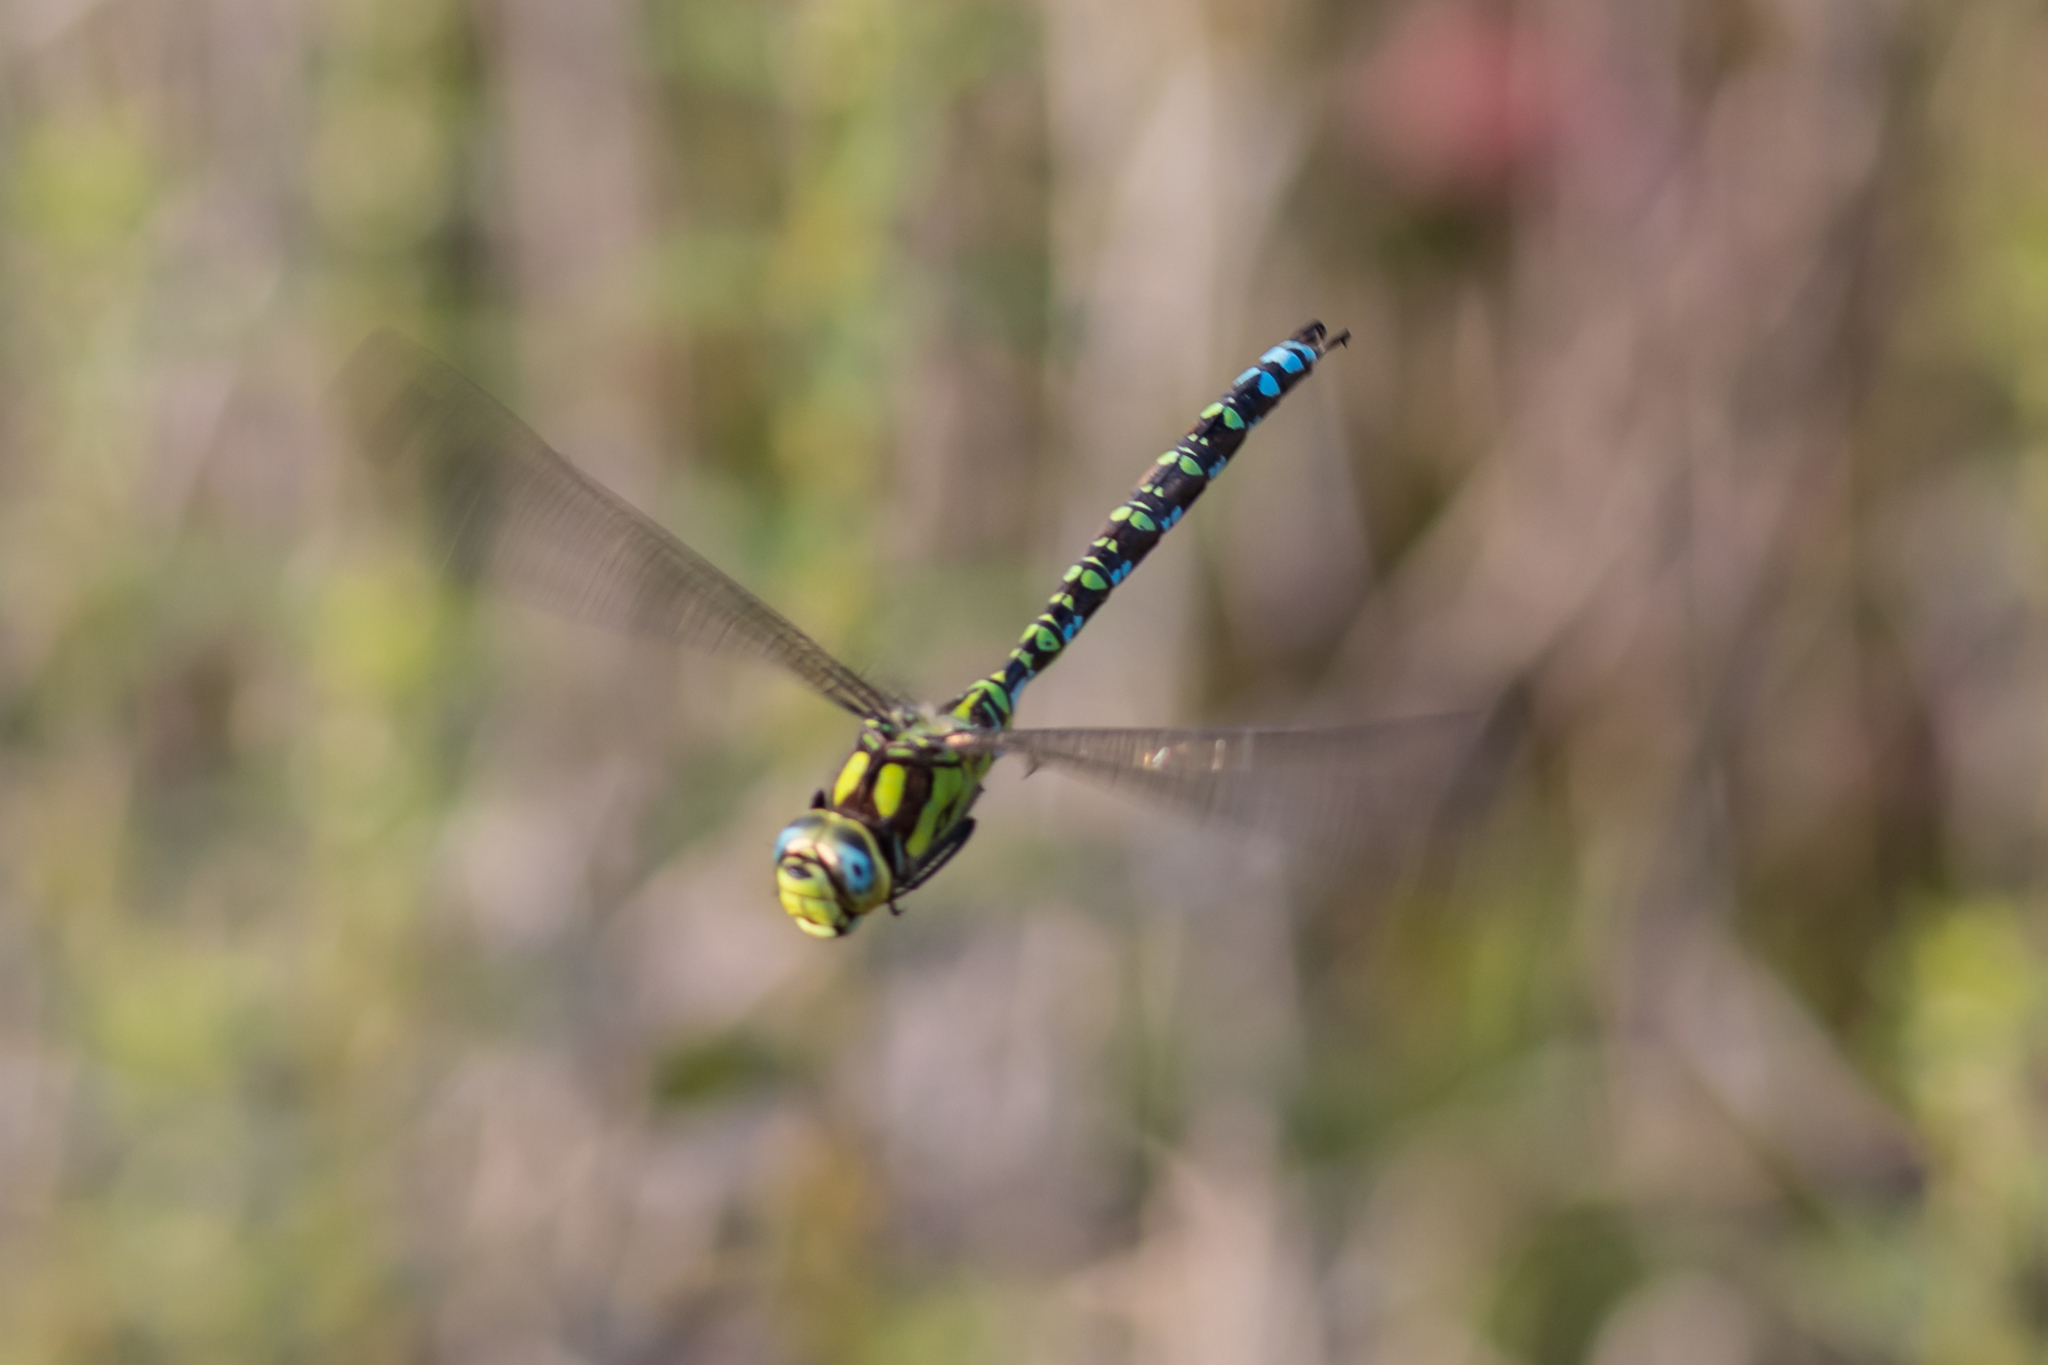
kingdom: Animalia
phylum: Arthropoda
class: Insecta
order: Odonata
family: Aeshnidae
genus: Aeshna
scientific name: Aeshna cyanea
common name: Southern hawker
